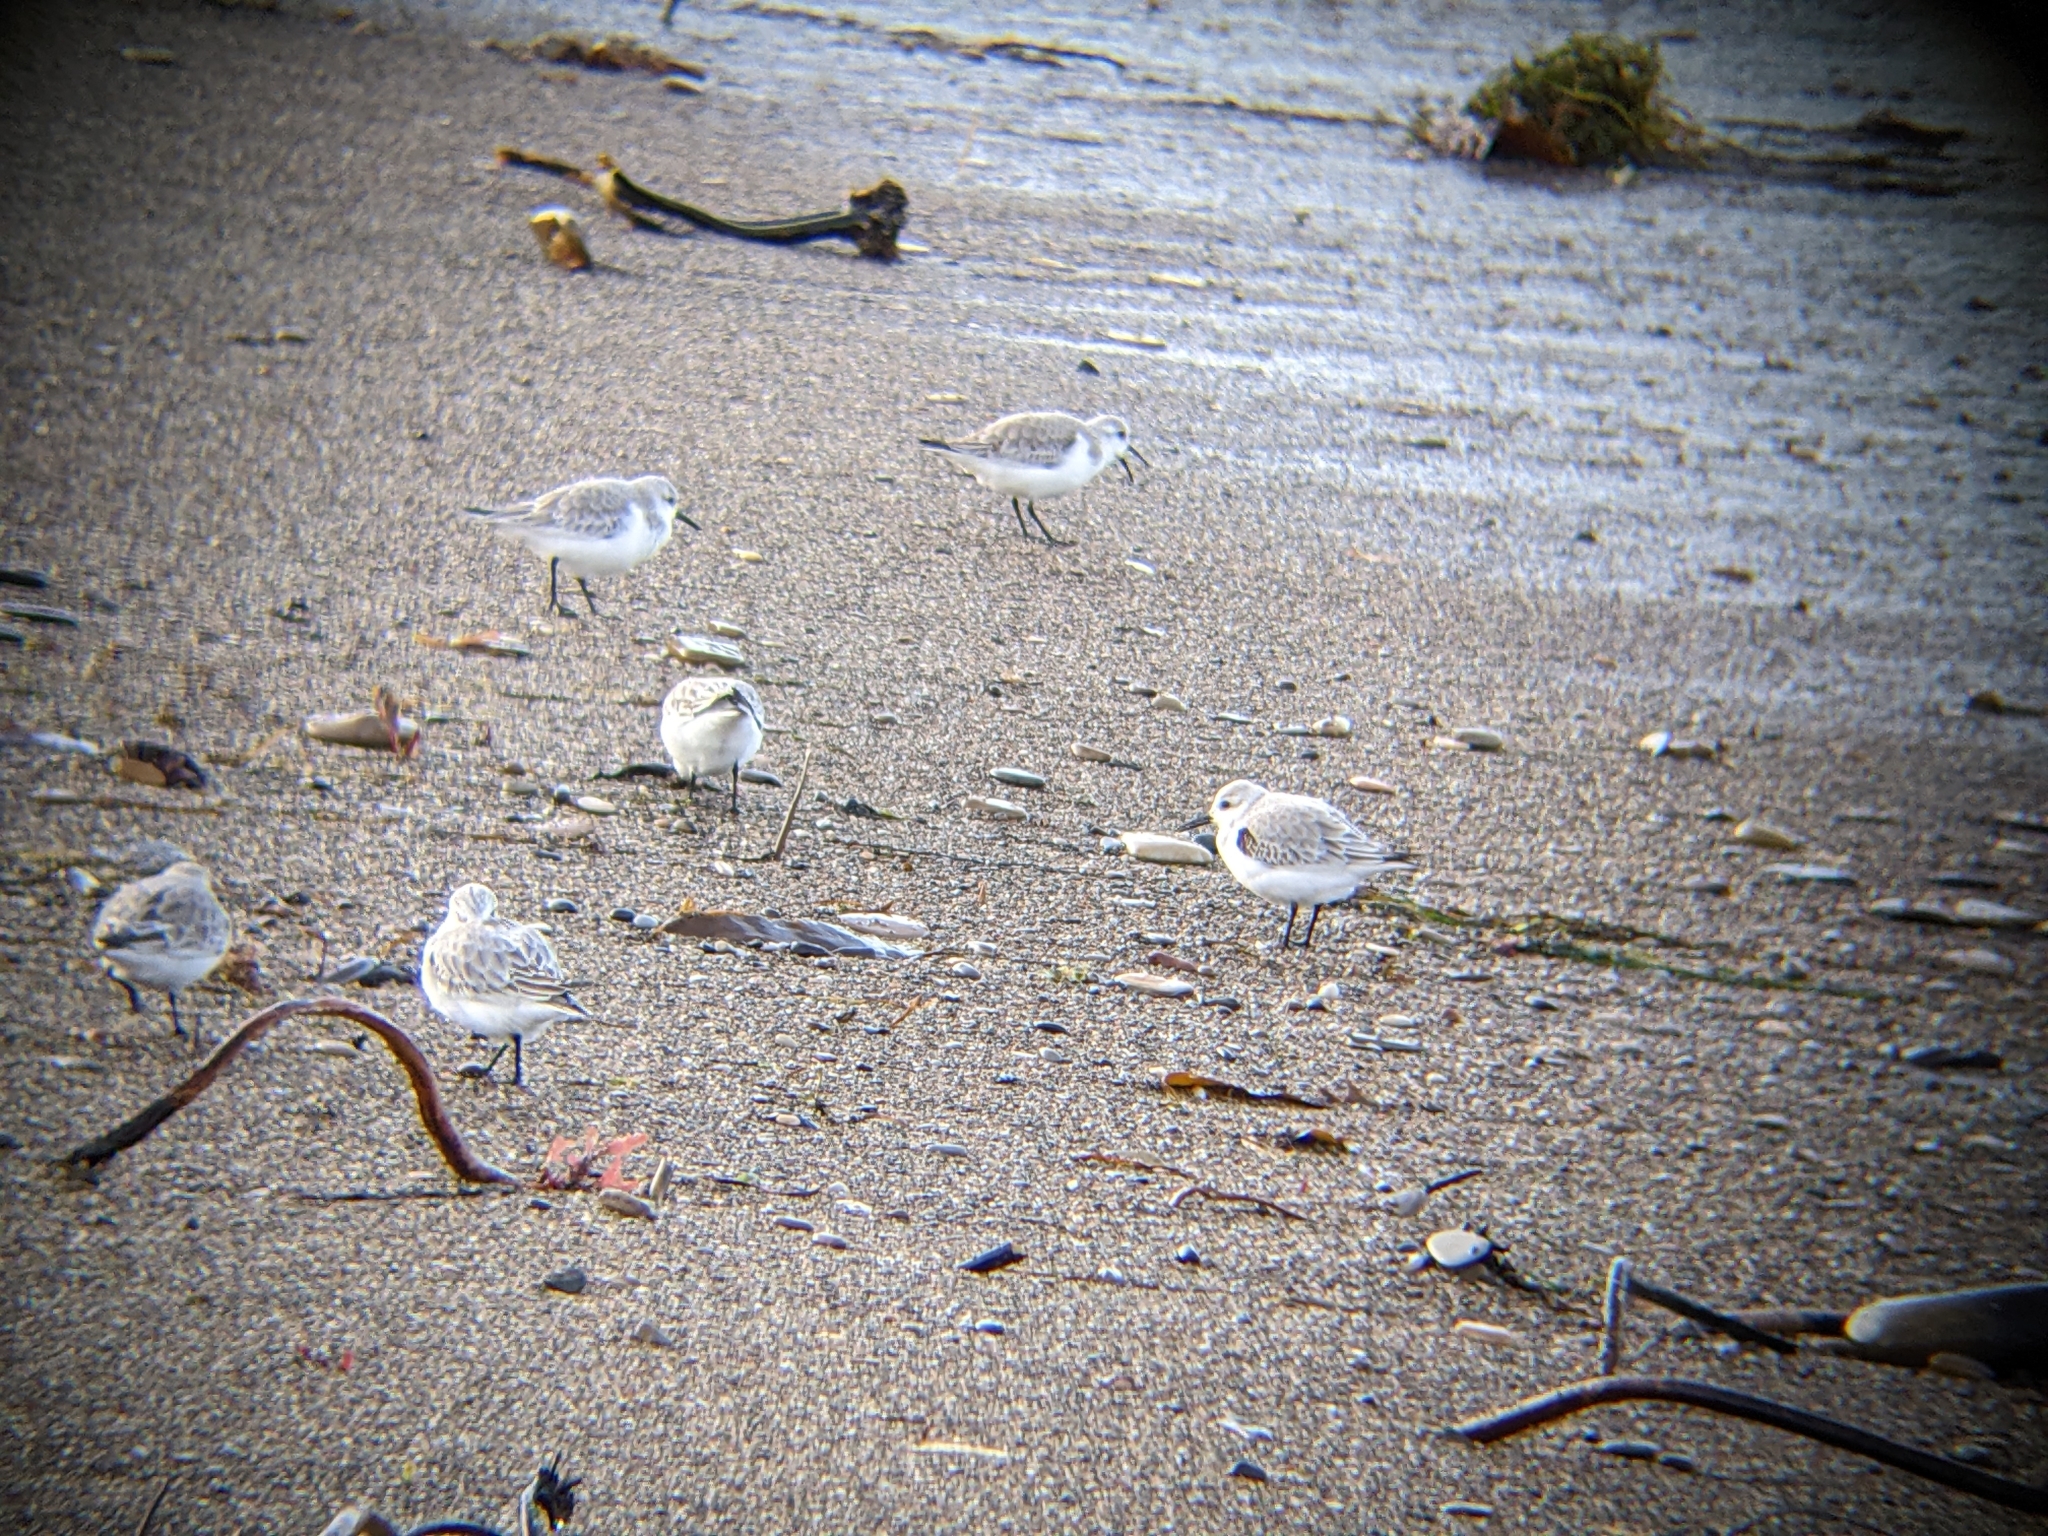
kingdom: Animalia
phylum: Chordata
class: Aves
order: Charadriiformes
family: Scolopacidae
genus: Calidris
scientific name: Calidris alba
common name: Sanderling
